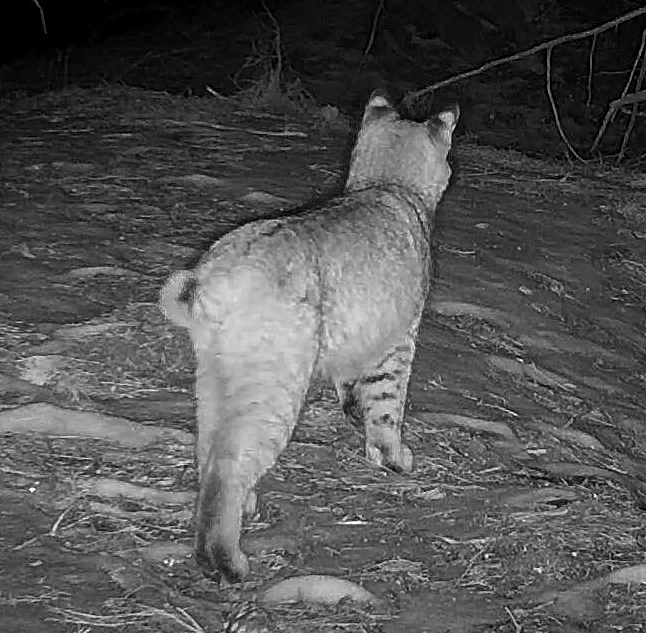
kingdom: Animalia
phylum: Chordata
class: Mammalia
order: Carnivora
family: Felidae
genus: Lynx
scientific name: Lynx rufus
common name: Bobcat
